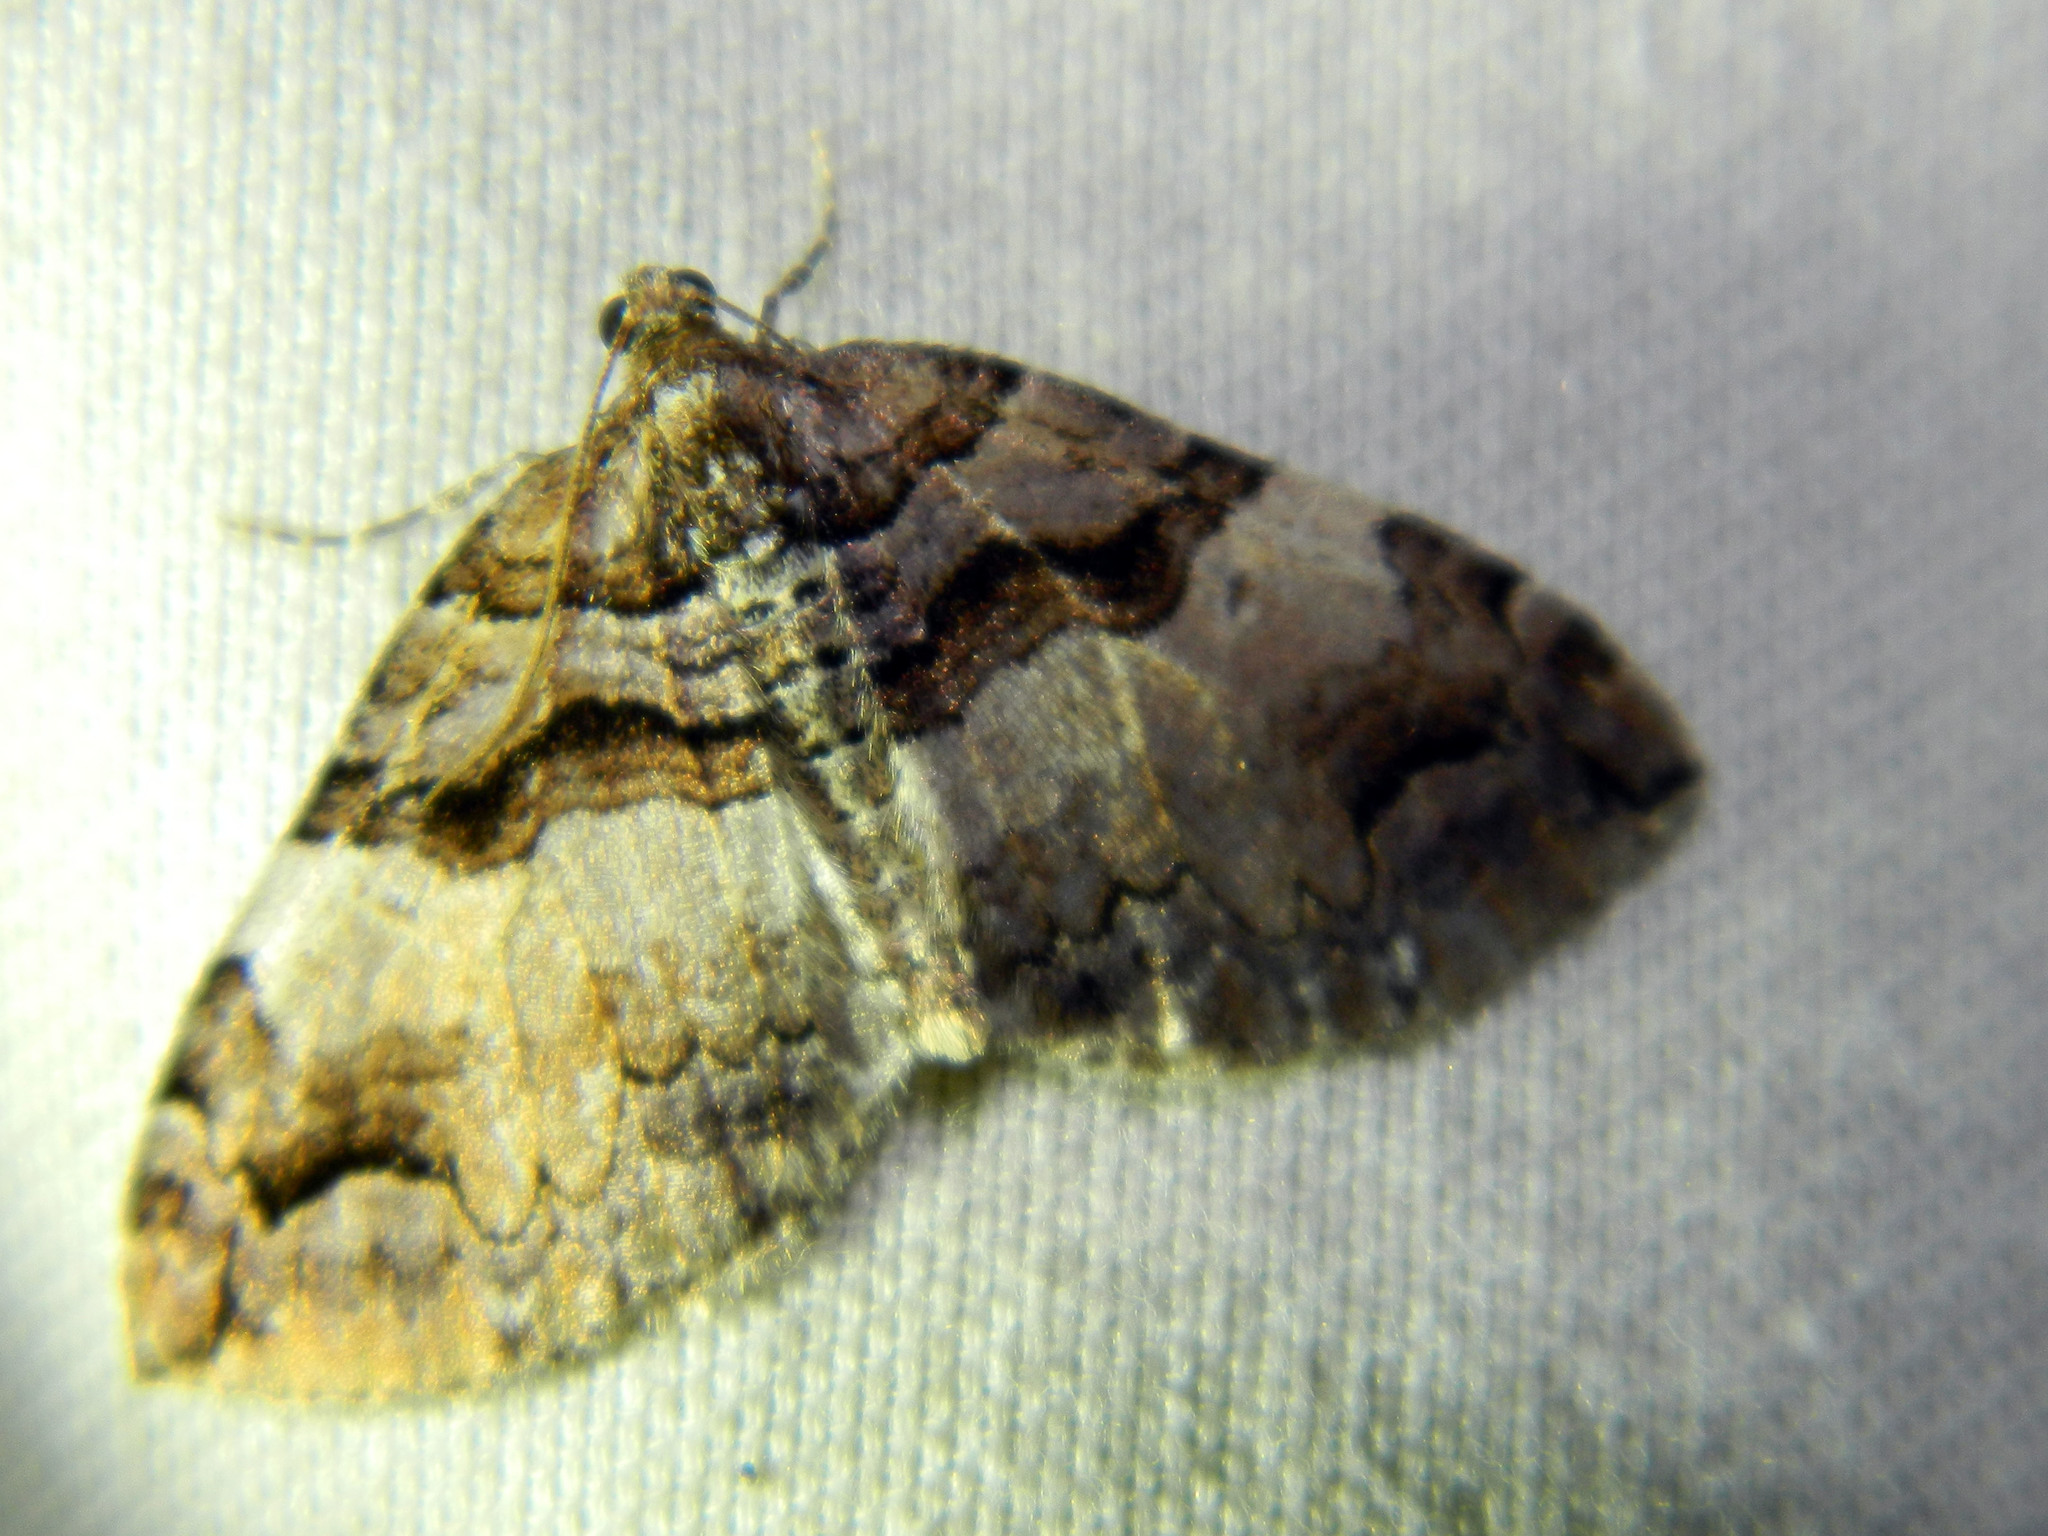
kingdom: Animalia
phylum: Arthropoda
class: Insecta
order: Lepidoptera
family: Geometridae
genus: Anticlea
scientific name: Anticlea vasiliata
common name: Variable carpet
